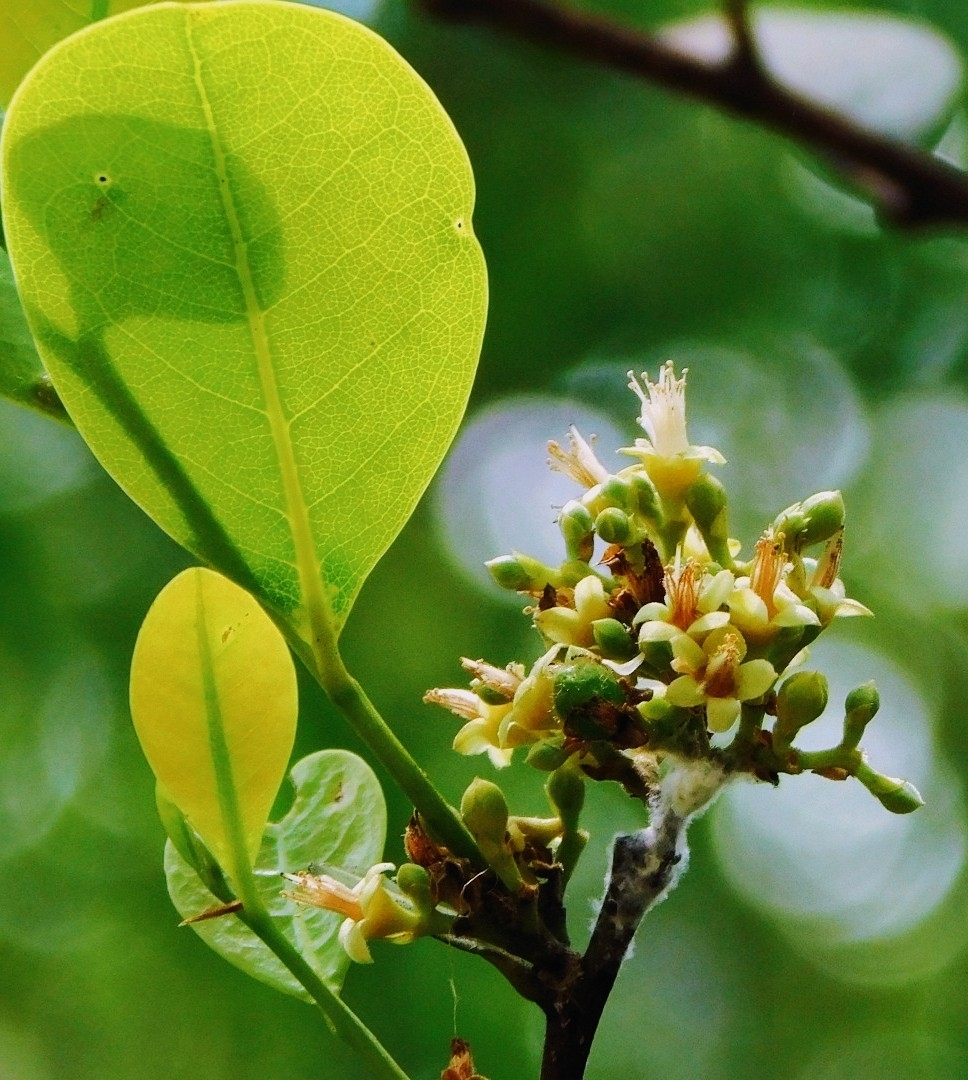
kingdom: Plantae
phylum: Tracheophyta
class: Magnoliopsida
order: Malpighiales
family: Chrysobalanaceae
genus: Chrysobalanus
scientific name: Chrysobalanus icaco
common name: Coco plum
